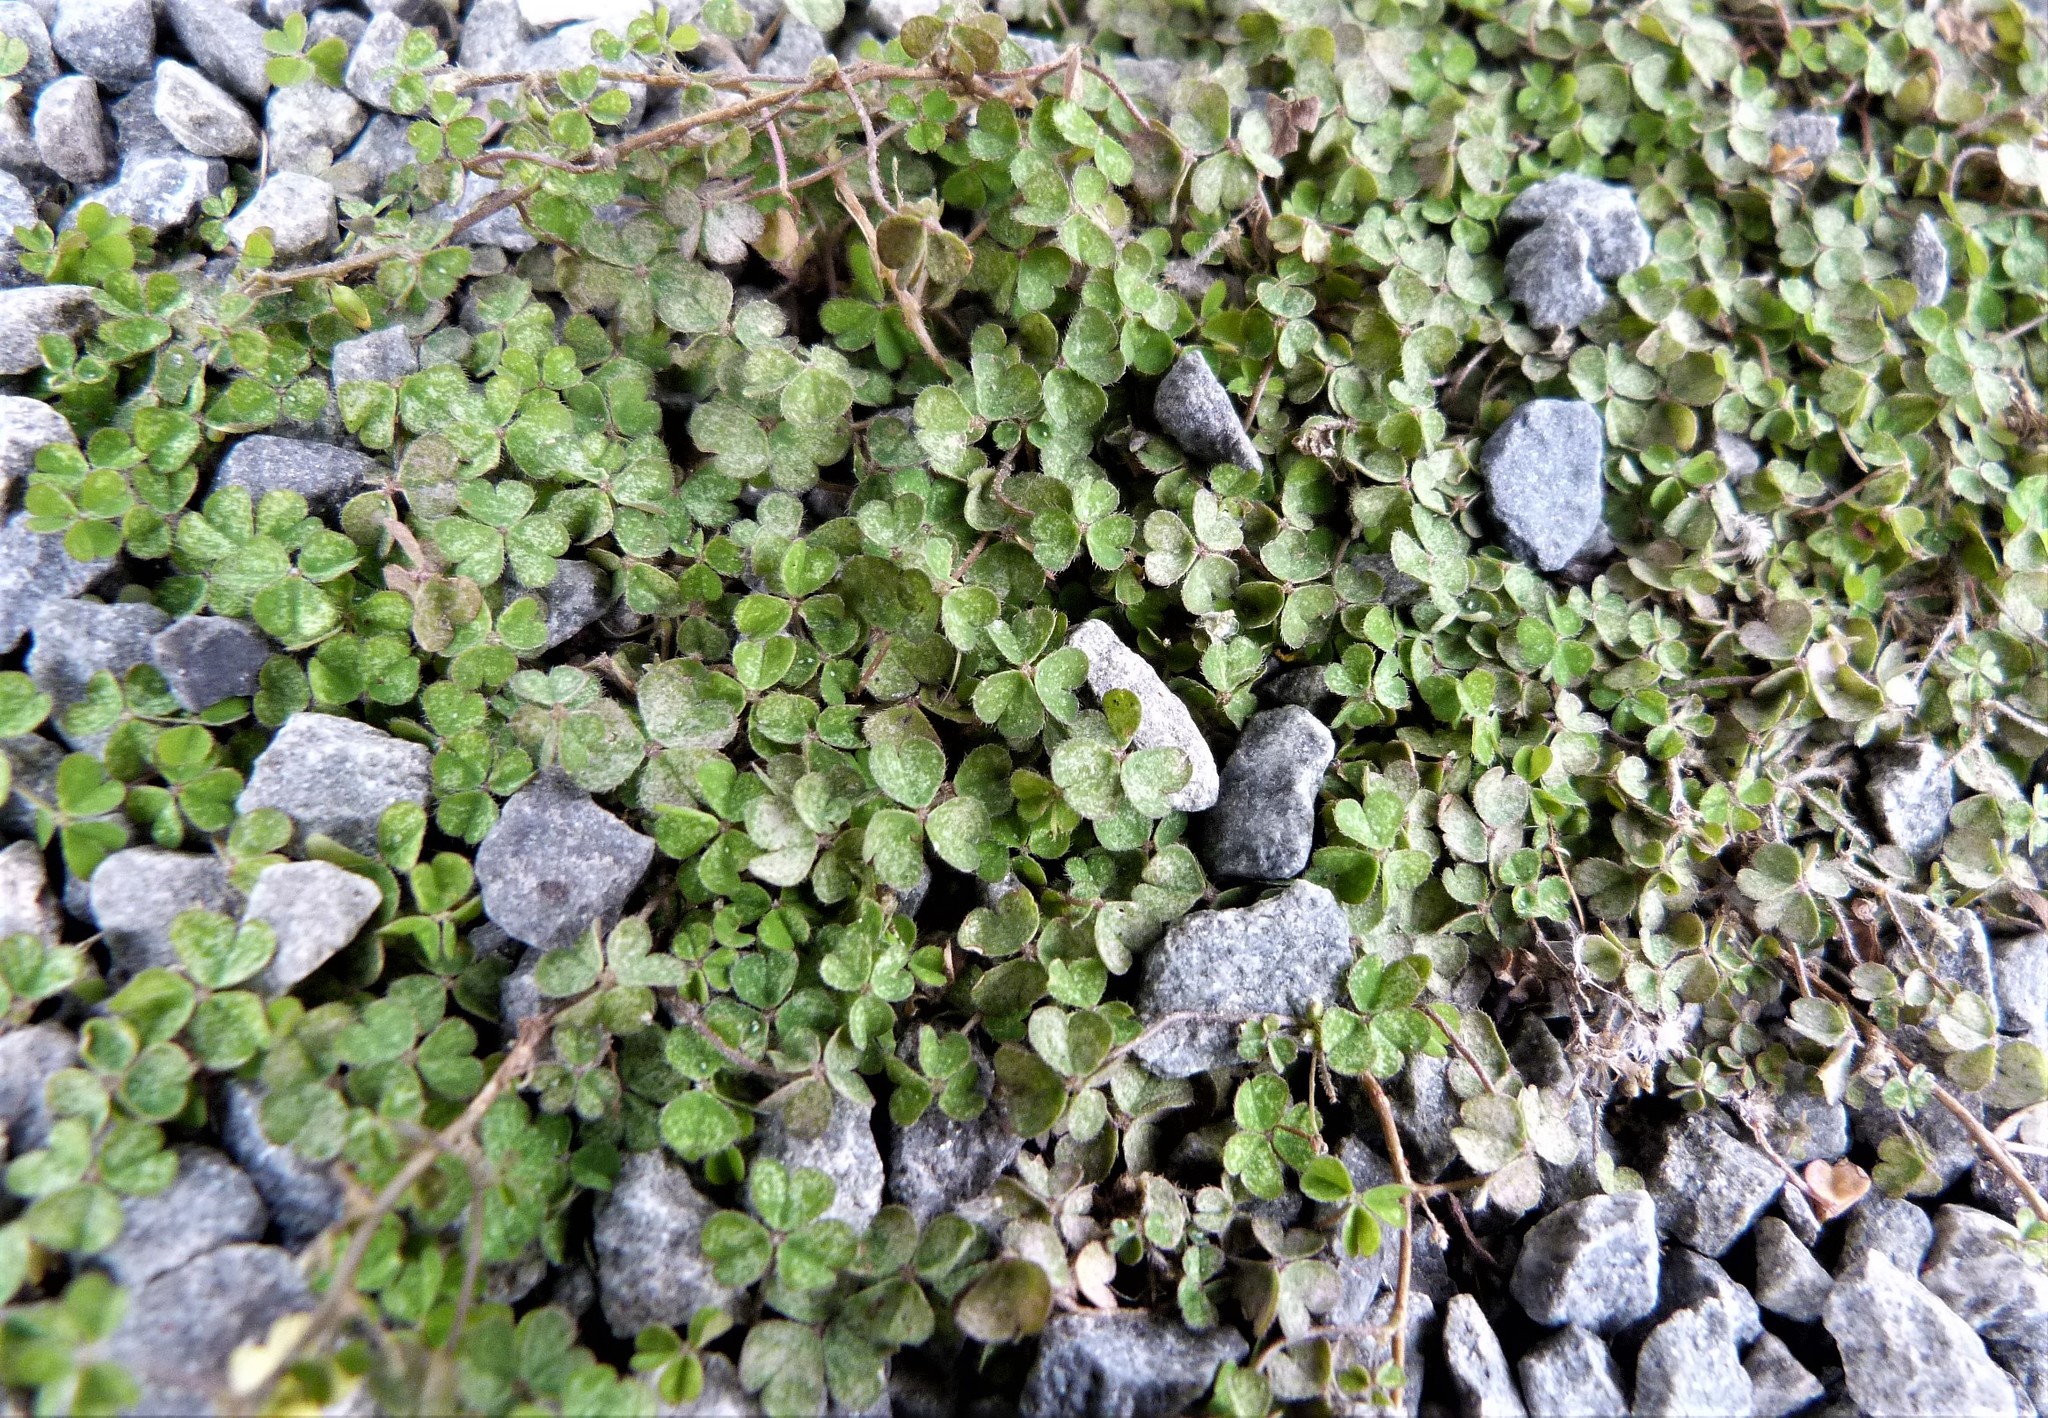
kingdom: Plantae
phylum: Tracheophyta
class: Magnoliopsida
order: Oxalidales
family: Oxalidaceae
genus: Oxalis
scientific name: Oxalis exilis
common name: Least yellow-sorrel
